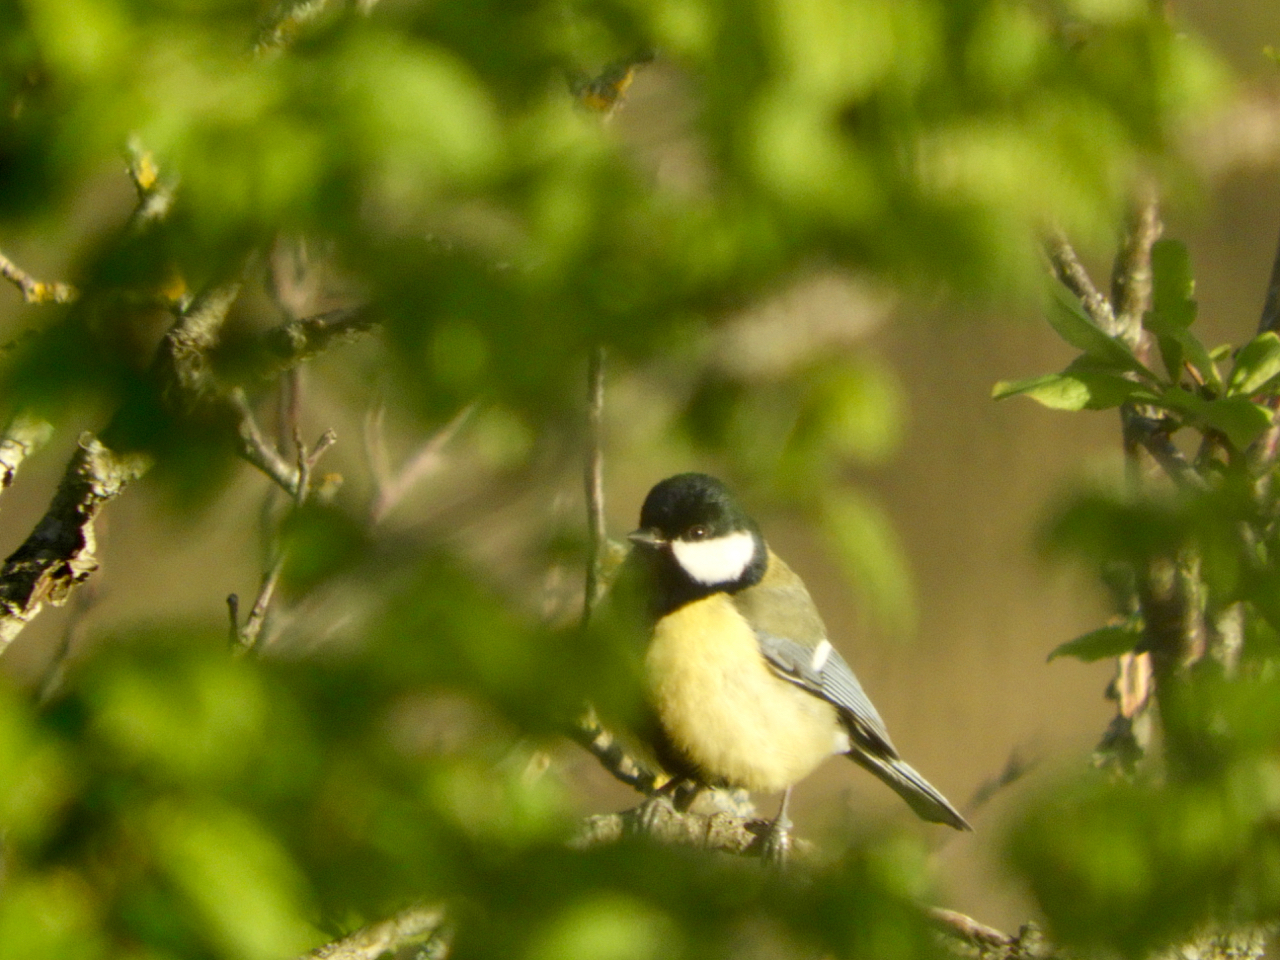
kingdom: Animalia
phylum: Chordata
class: Aves
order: Passeriformes
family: Paridae
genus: Parus
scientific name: Parus major
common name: Great tit
